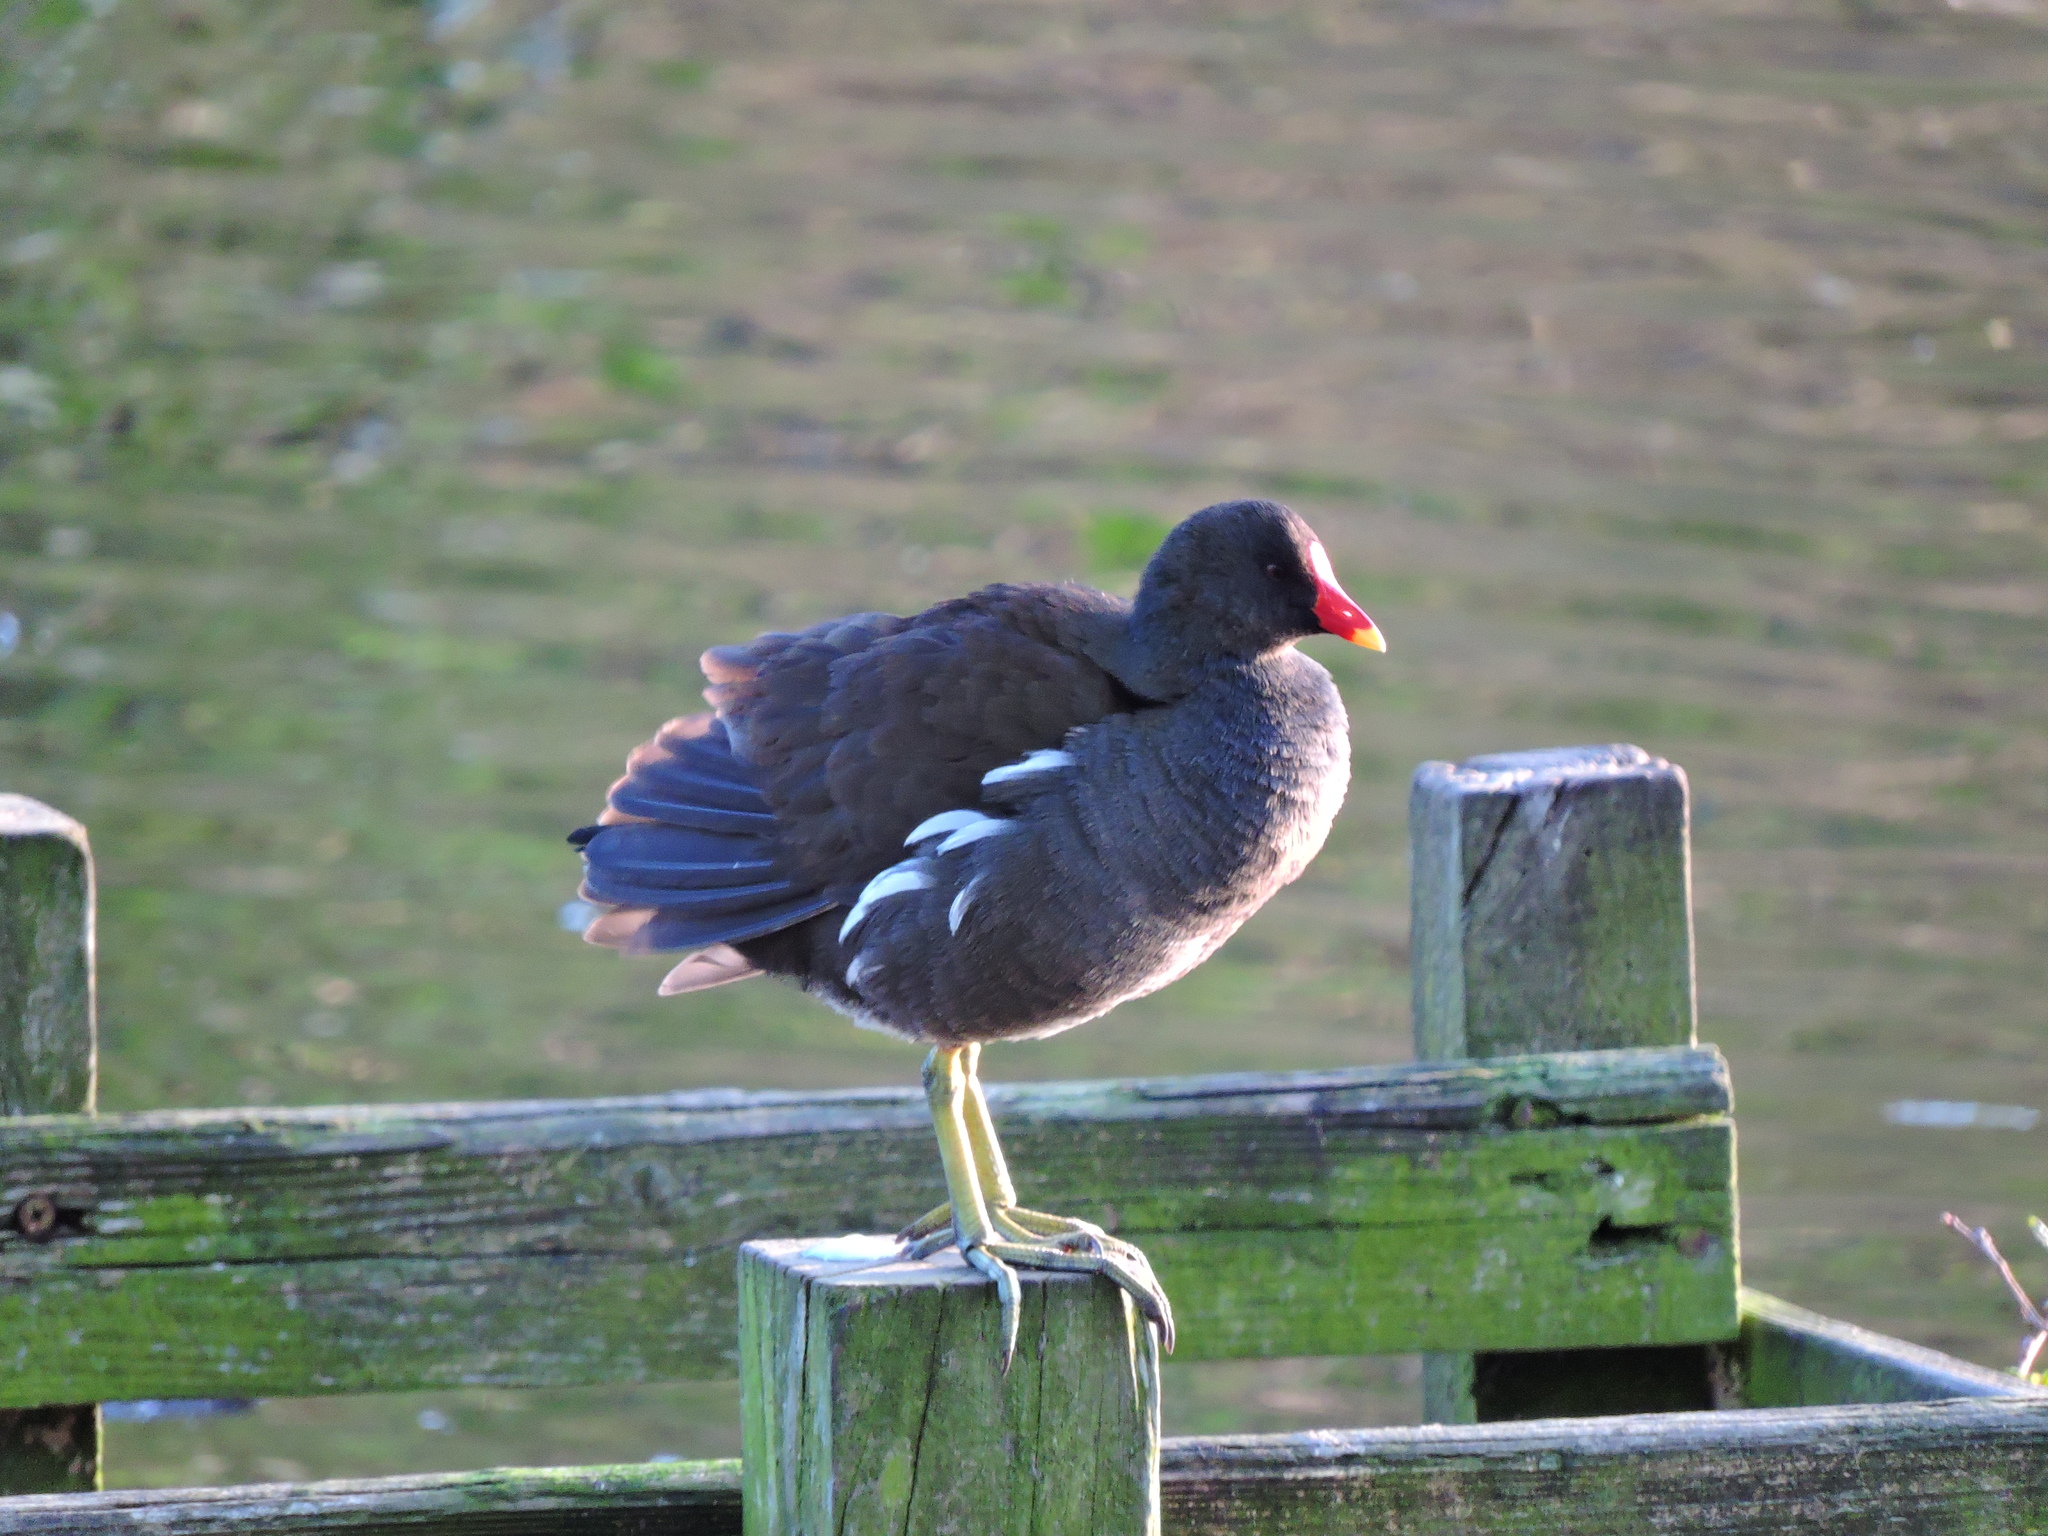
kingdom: Animalia
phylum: Chordata
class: Aves
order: Gruiformes
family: Rallidae
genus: Gallinula
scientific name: Gallinula chloropus
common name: Common moorhen
